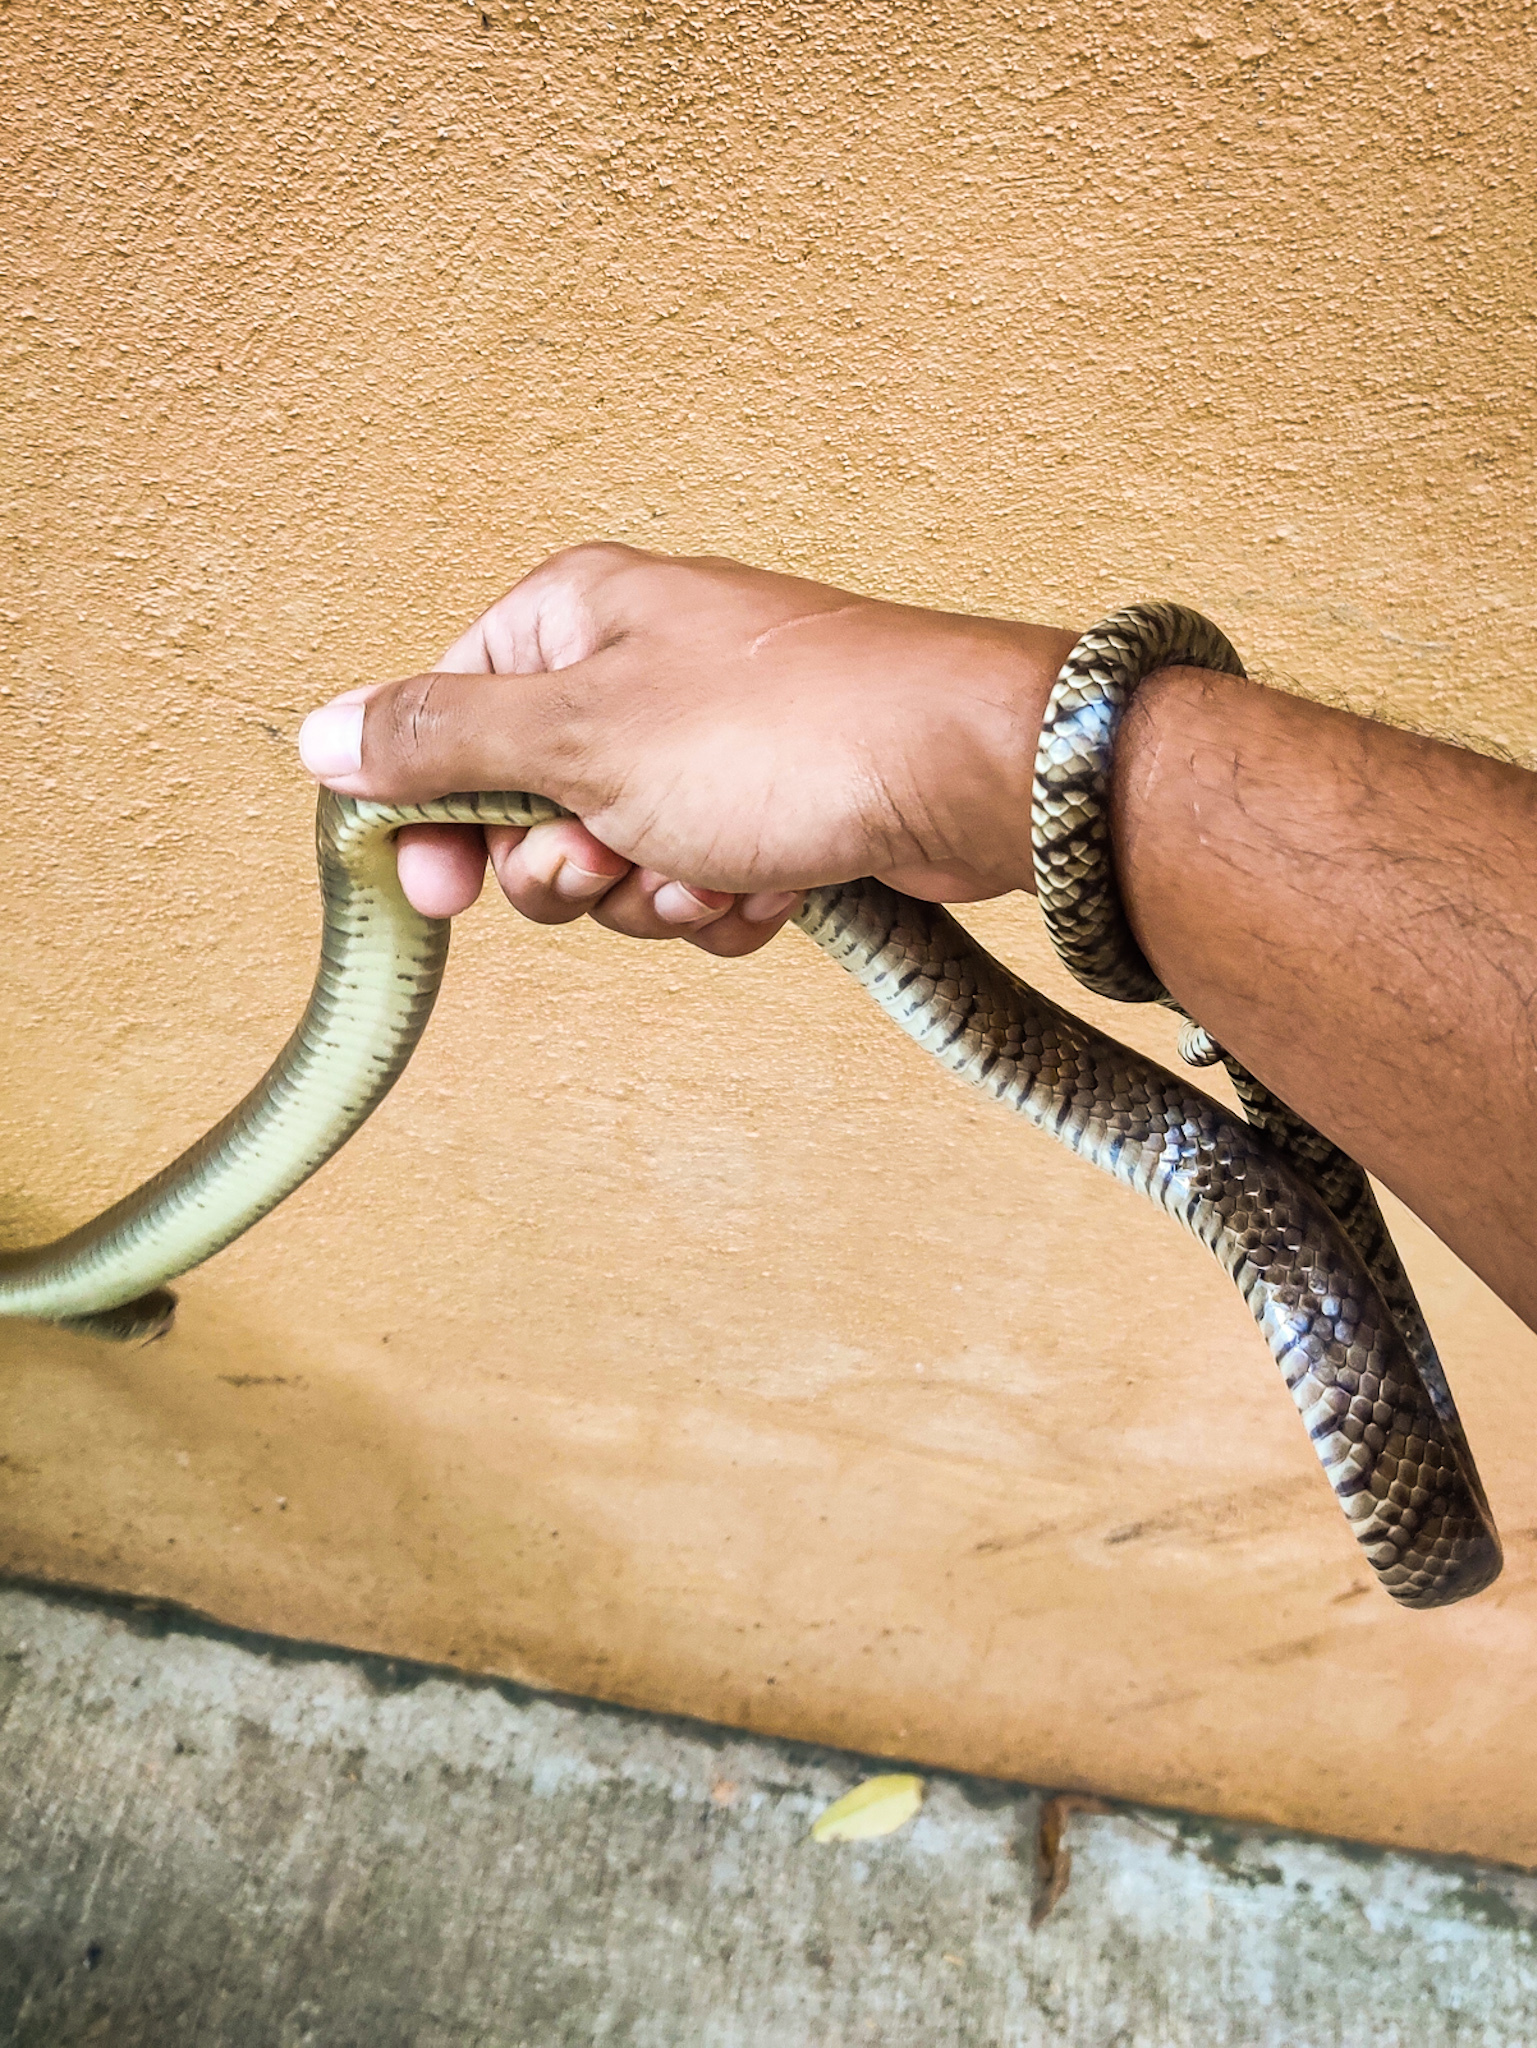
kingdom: Animalia
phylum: Chordata
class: Squamata
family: Colubridae
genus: Ptyas
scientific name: Ptyas mucosa
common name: Oriental ratsnake
